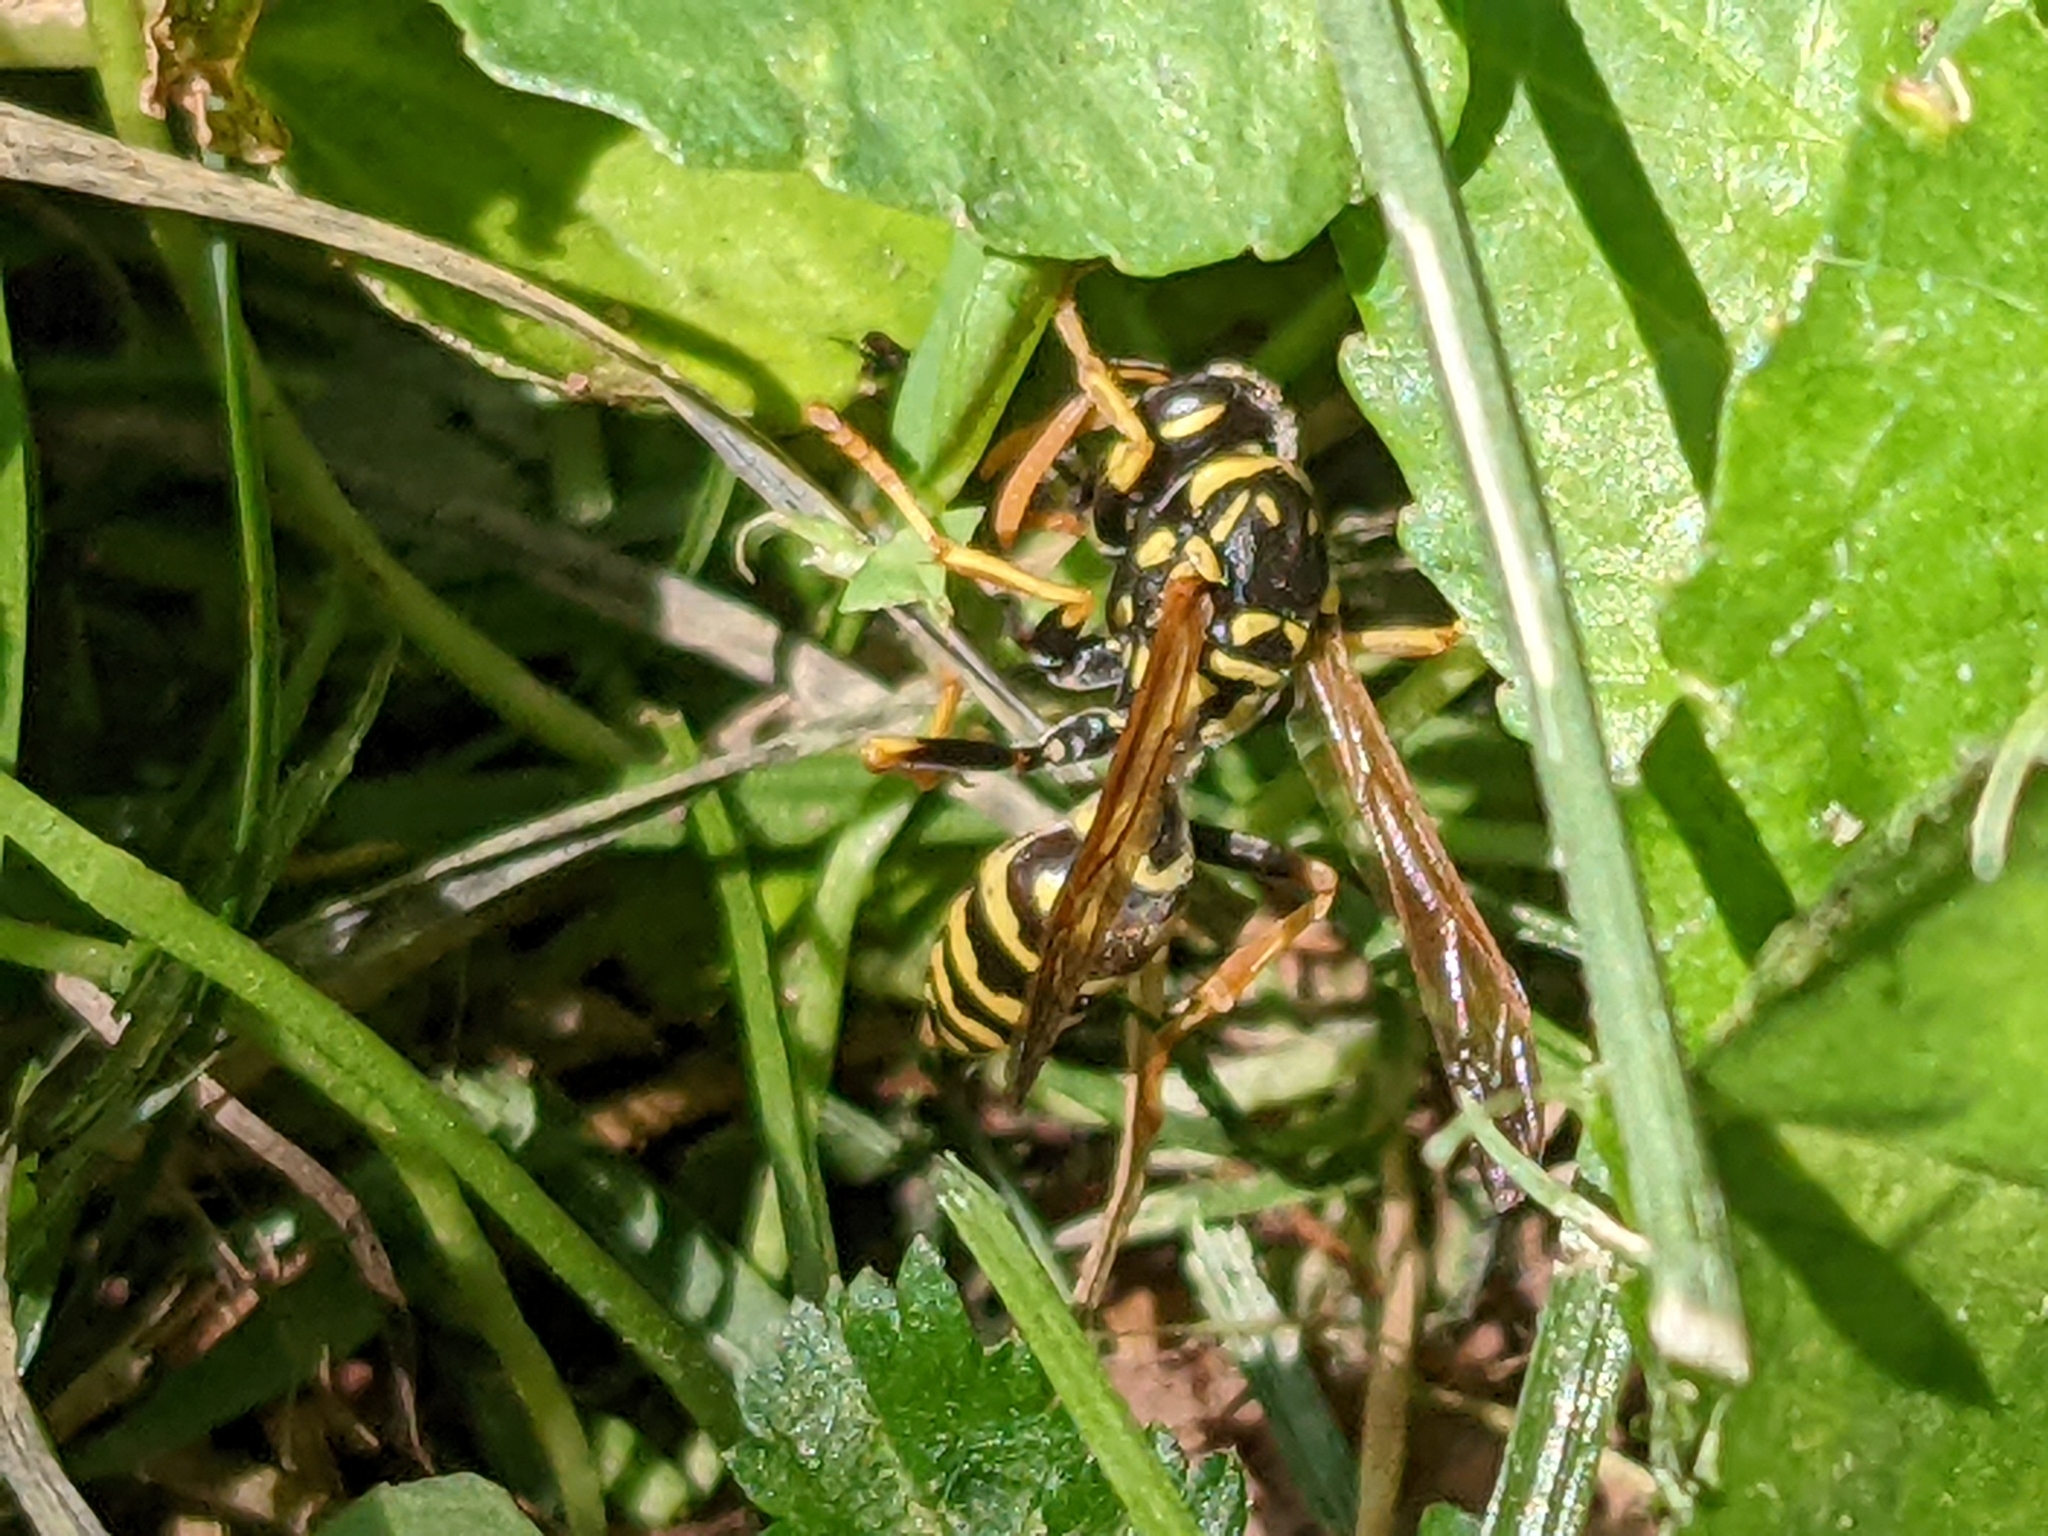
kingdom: Animalia
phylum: Arthropoda
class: Insecta
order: Hymenoptera
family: Eumenidae
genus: Polistes
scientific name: Polistes dominula
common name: Paper wasp
